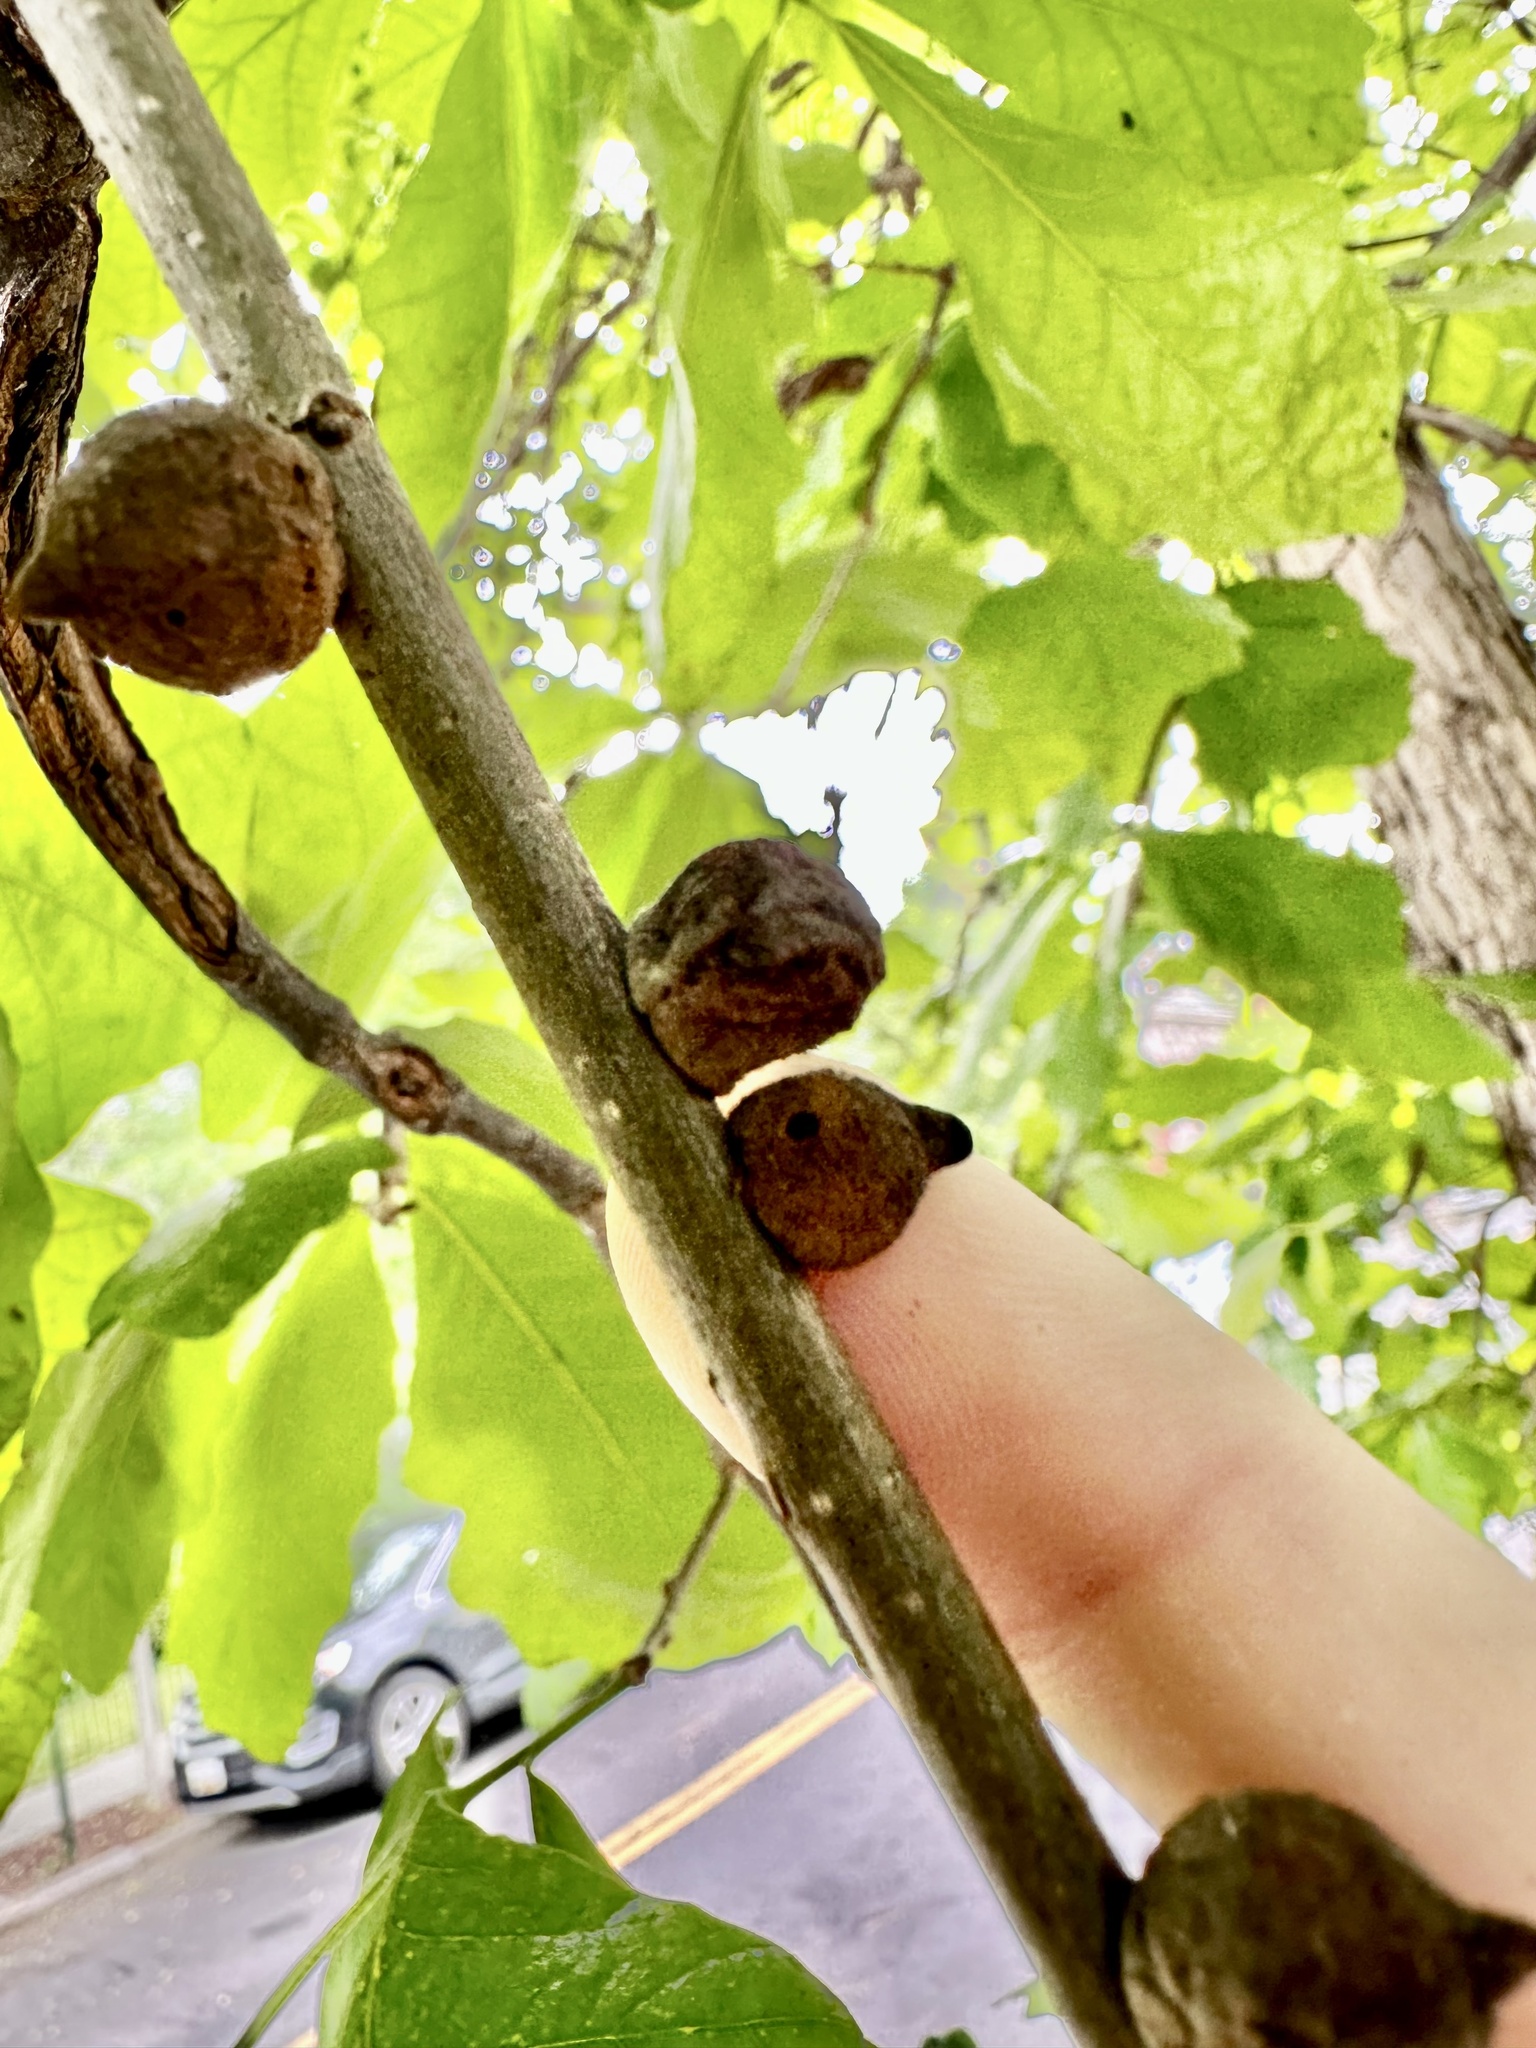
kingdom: Animalia
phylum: Arthropoda
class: Insecta
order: Hymenoptera
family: Cynipidae
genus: Disholcaspis
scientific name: Disholcaspis
